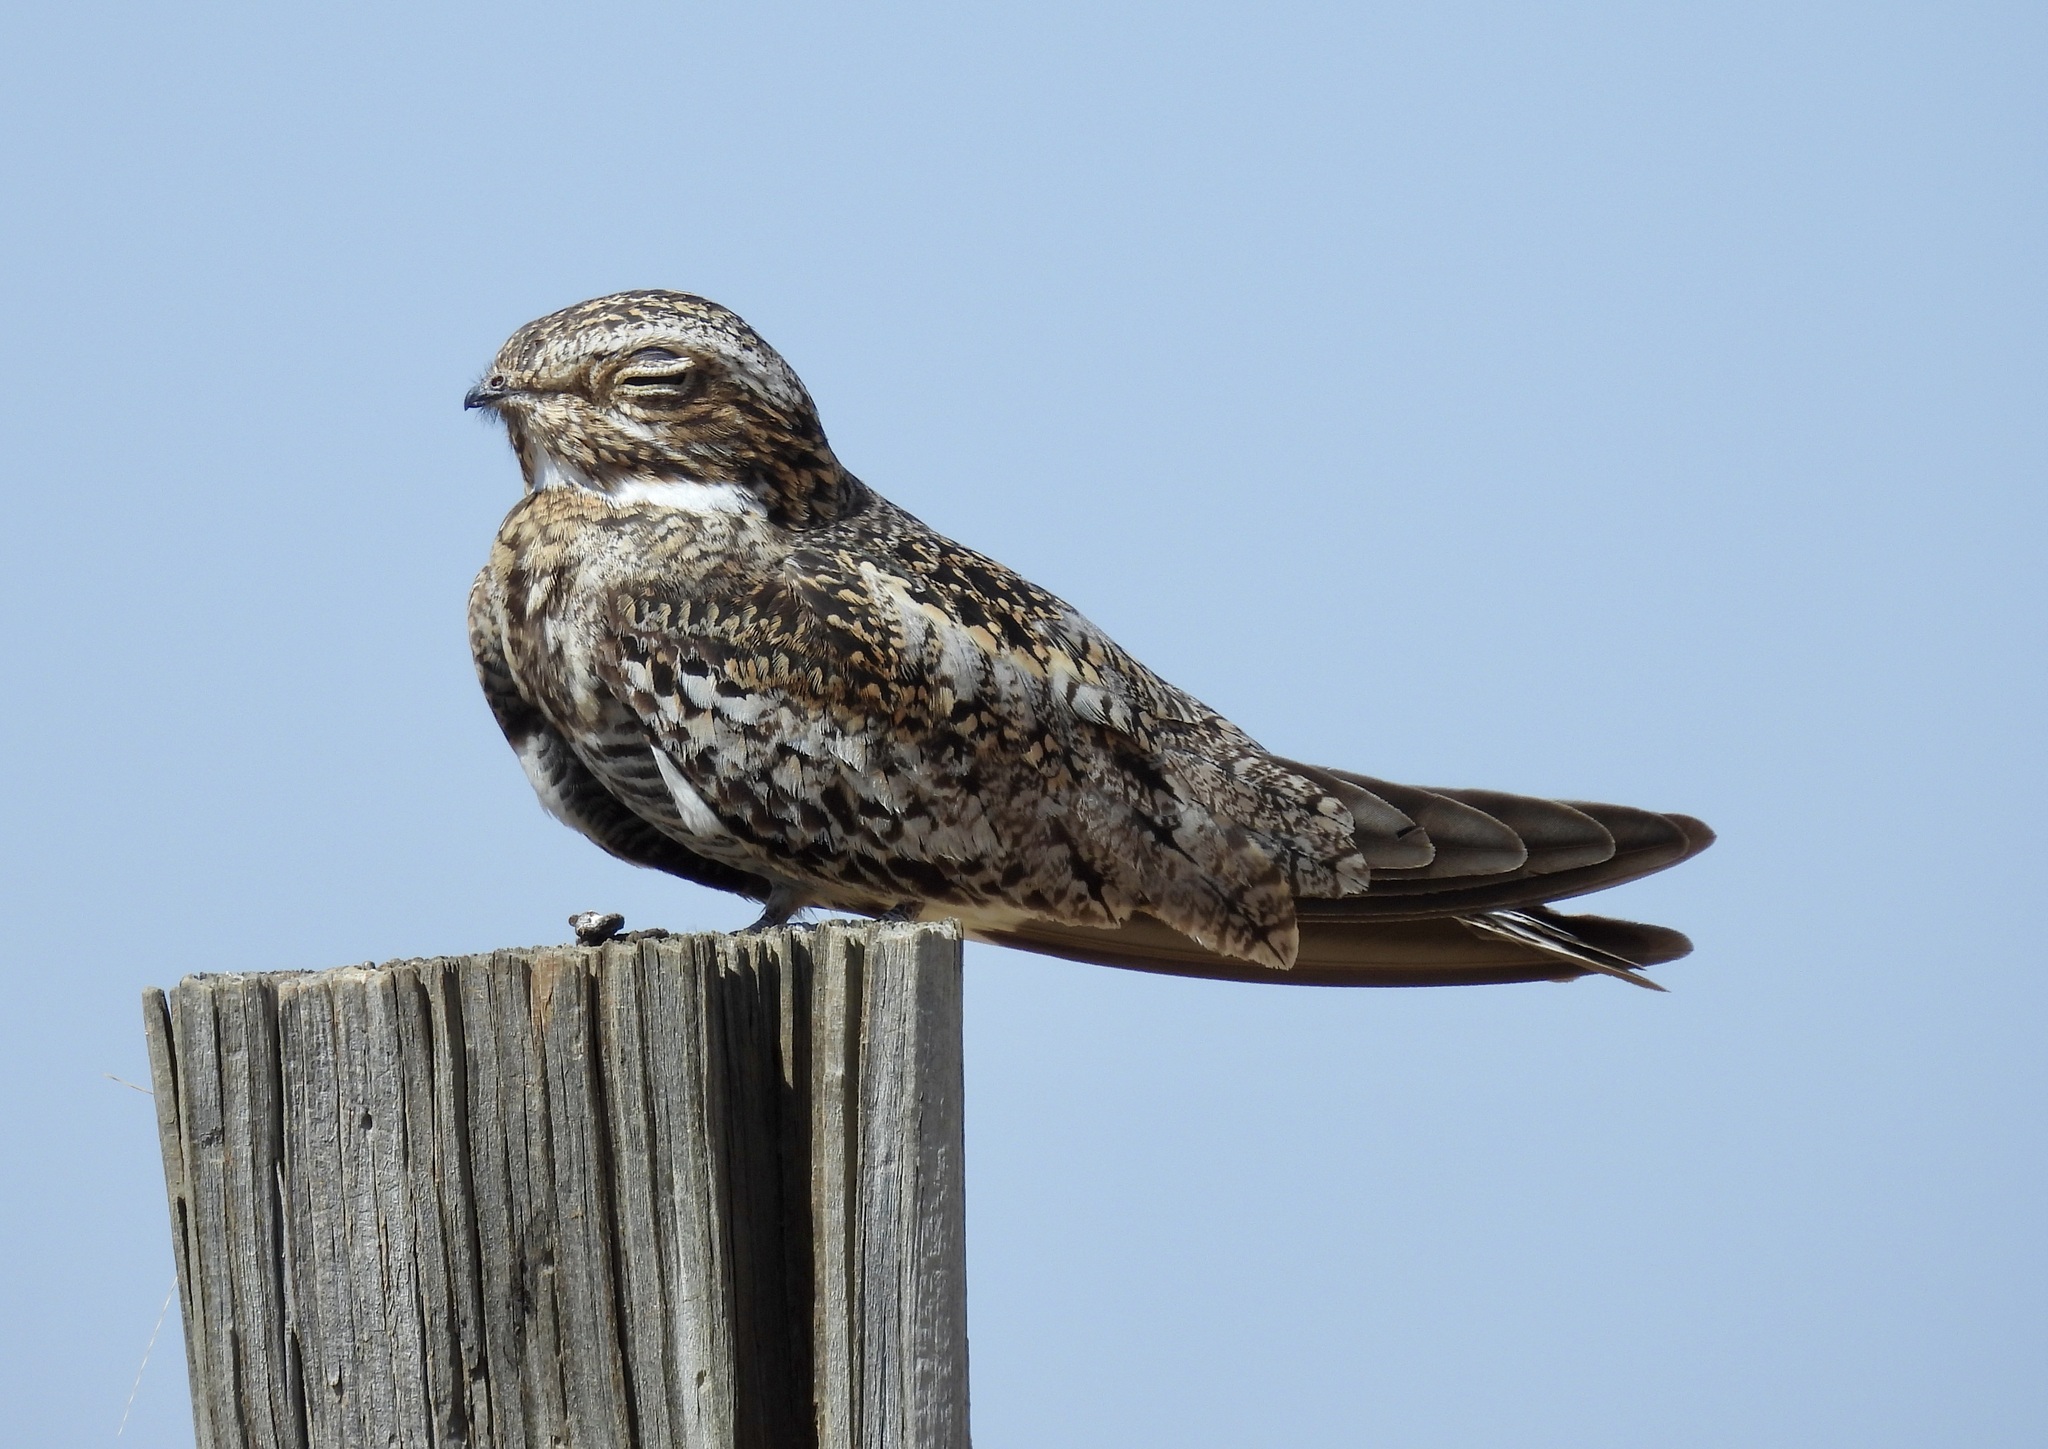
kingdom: Animalia
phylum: Chordata
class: Aves
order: Caprimulgiformes
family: Caprimulgidae
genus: Chordeiles
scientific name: Chordeiles minor
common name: Common nighthawk
